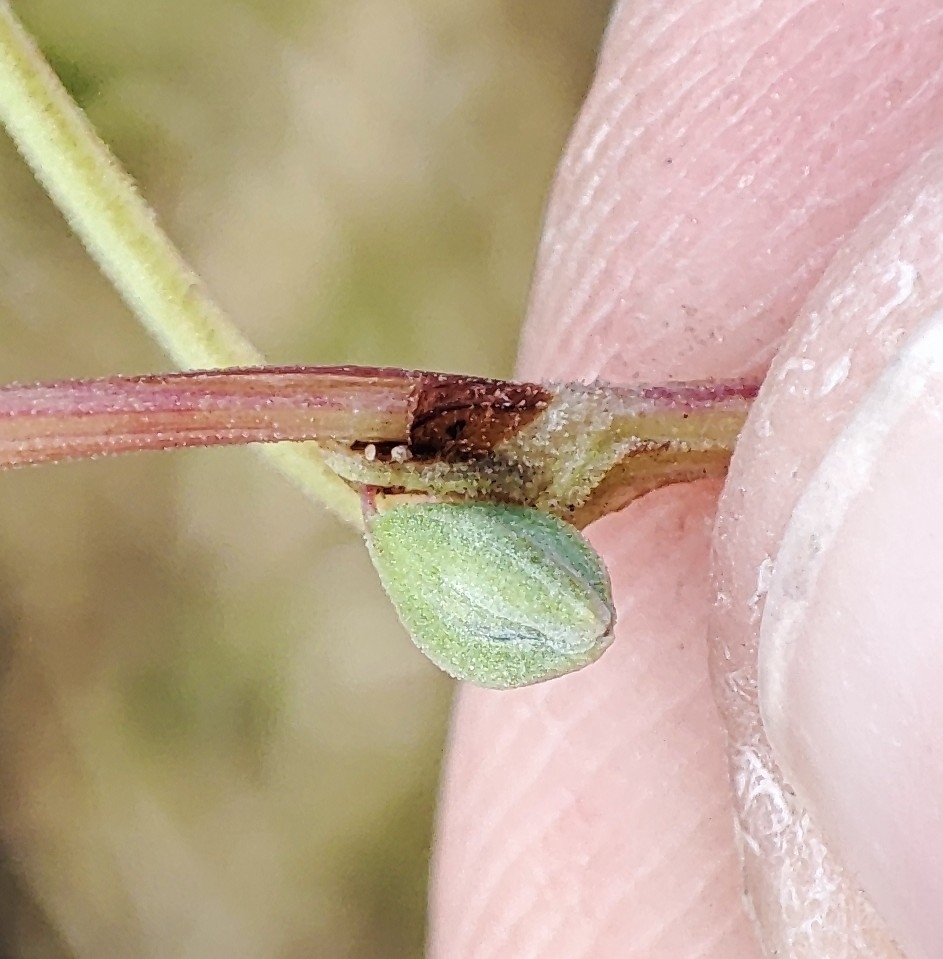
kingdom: Plantae
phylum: Tracheophyta
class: Magnoliopsida
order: Caryophyllales
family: Polygonaceae
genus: Fallopia
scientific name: Fallopia convolvulus
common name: Black bindweed
